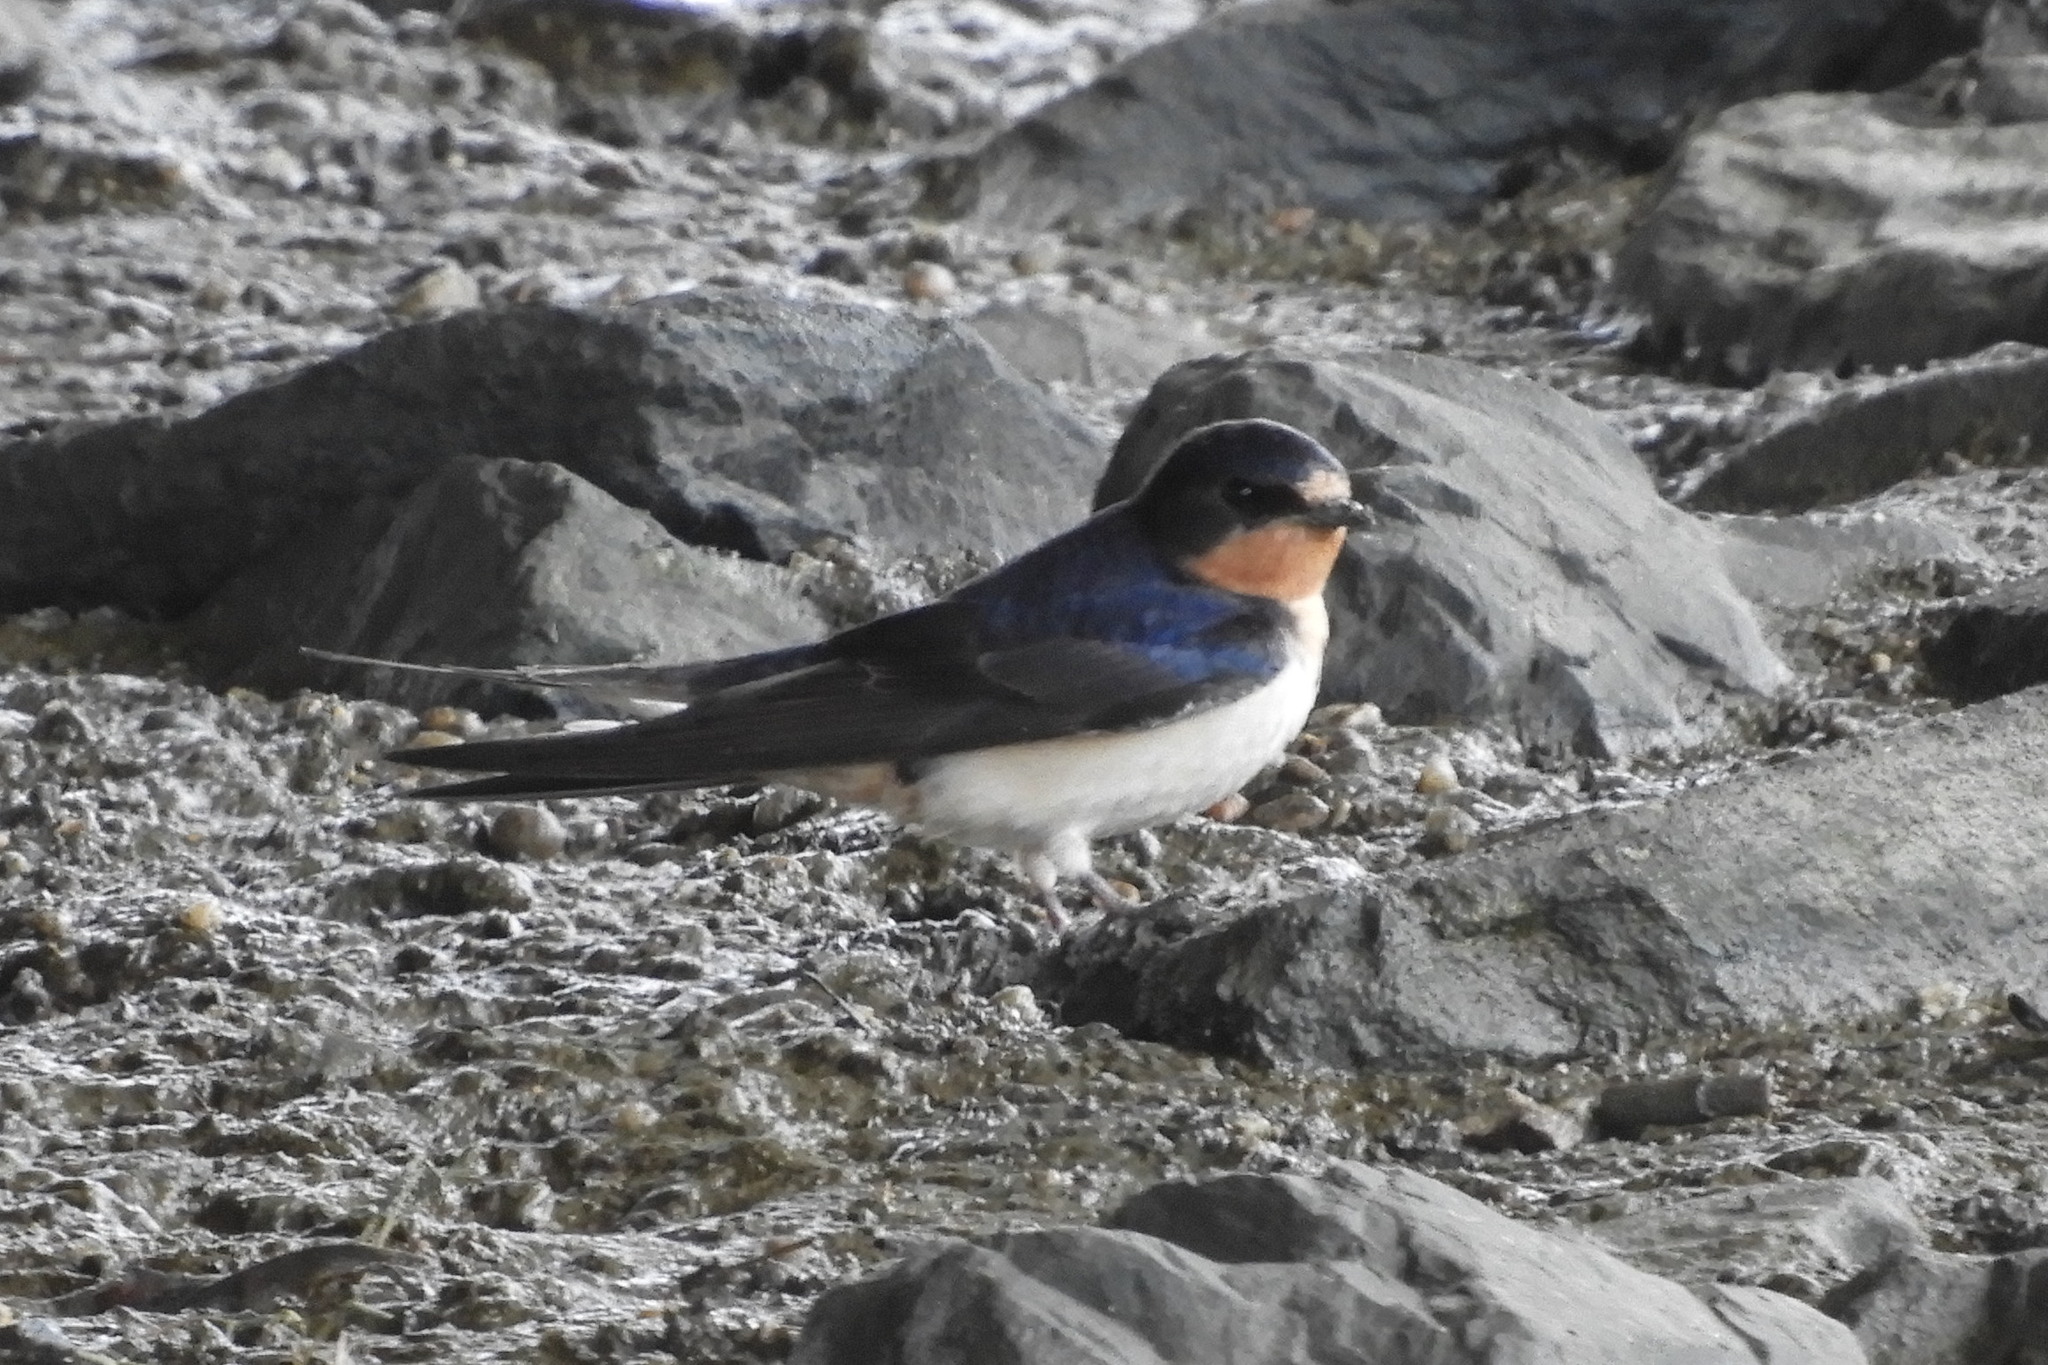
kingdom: Animalia
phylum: Chordata
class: Aves
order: Passeriformes
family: Hirundinidae
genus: Hirundo
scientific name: Hirundo rustica
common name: Barn swallow
